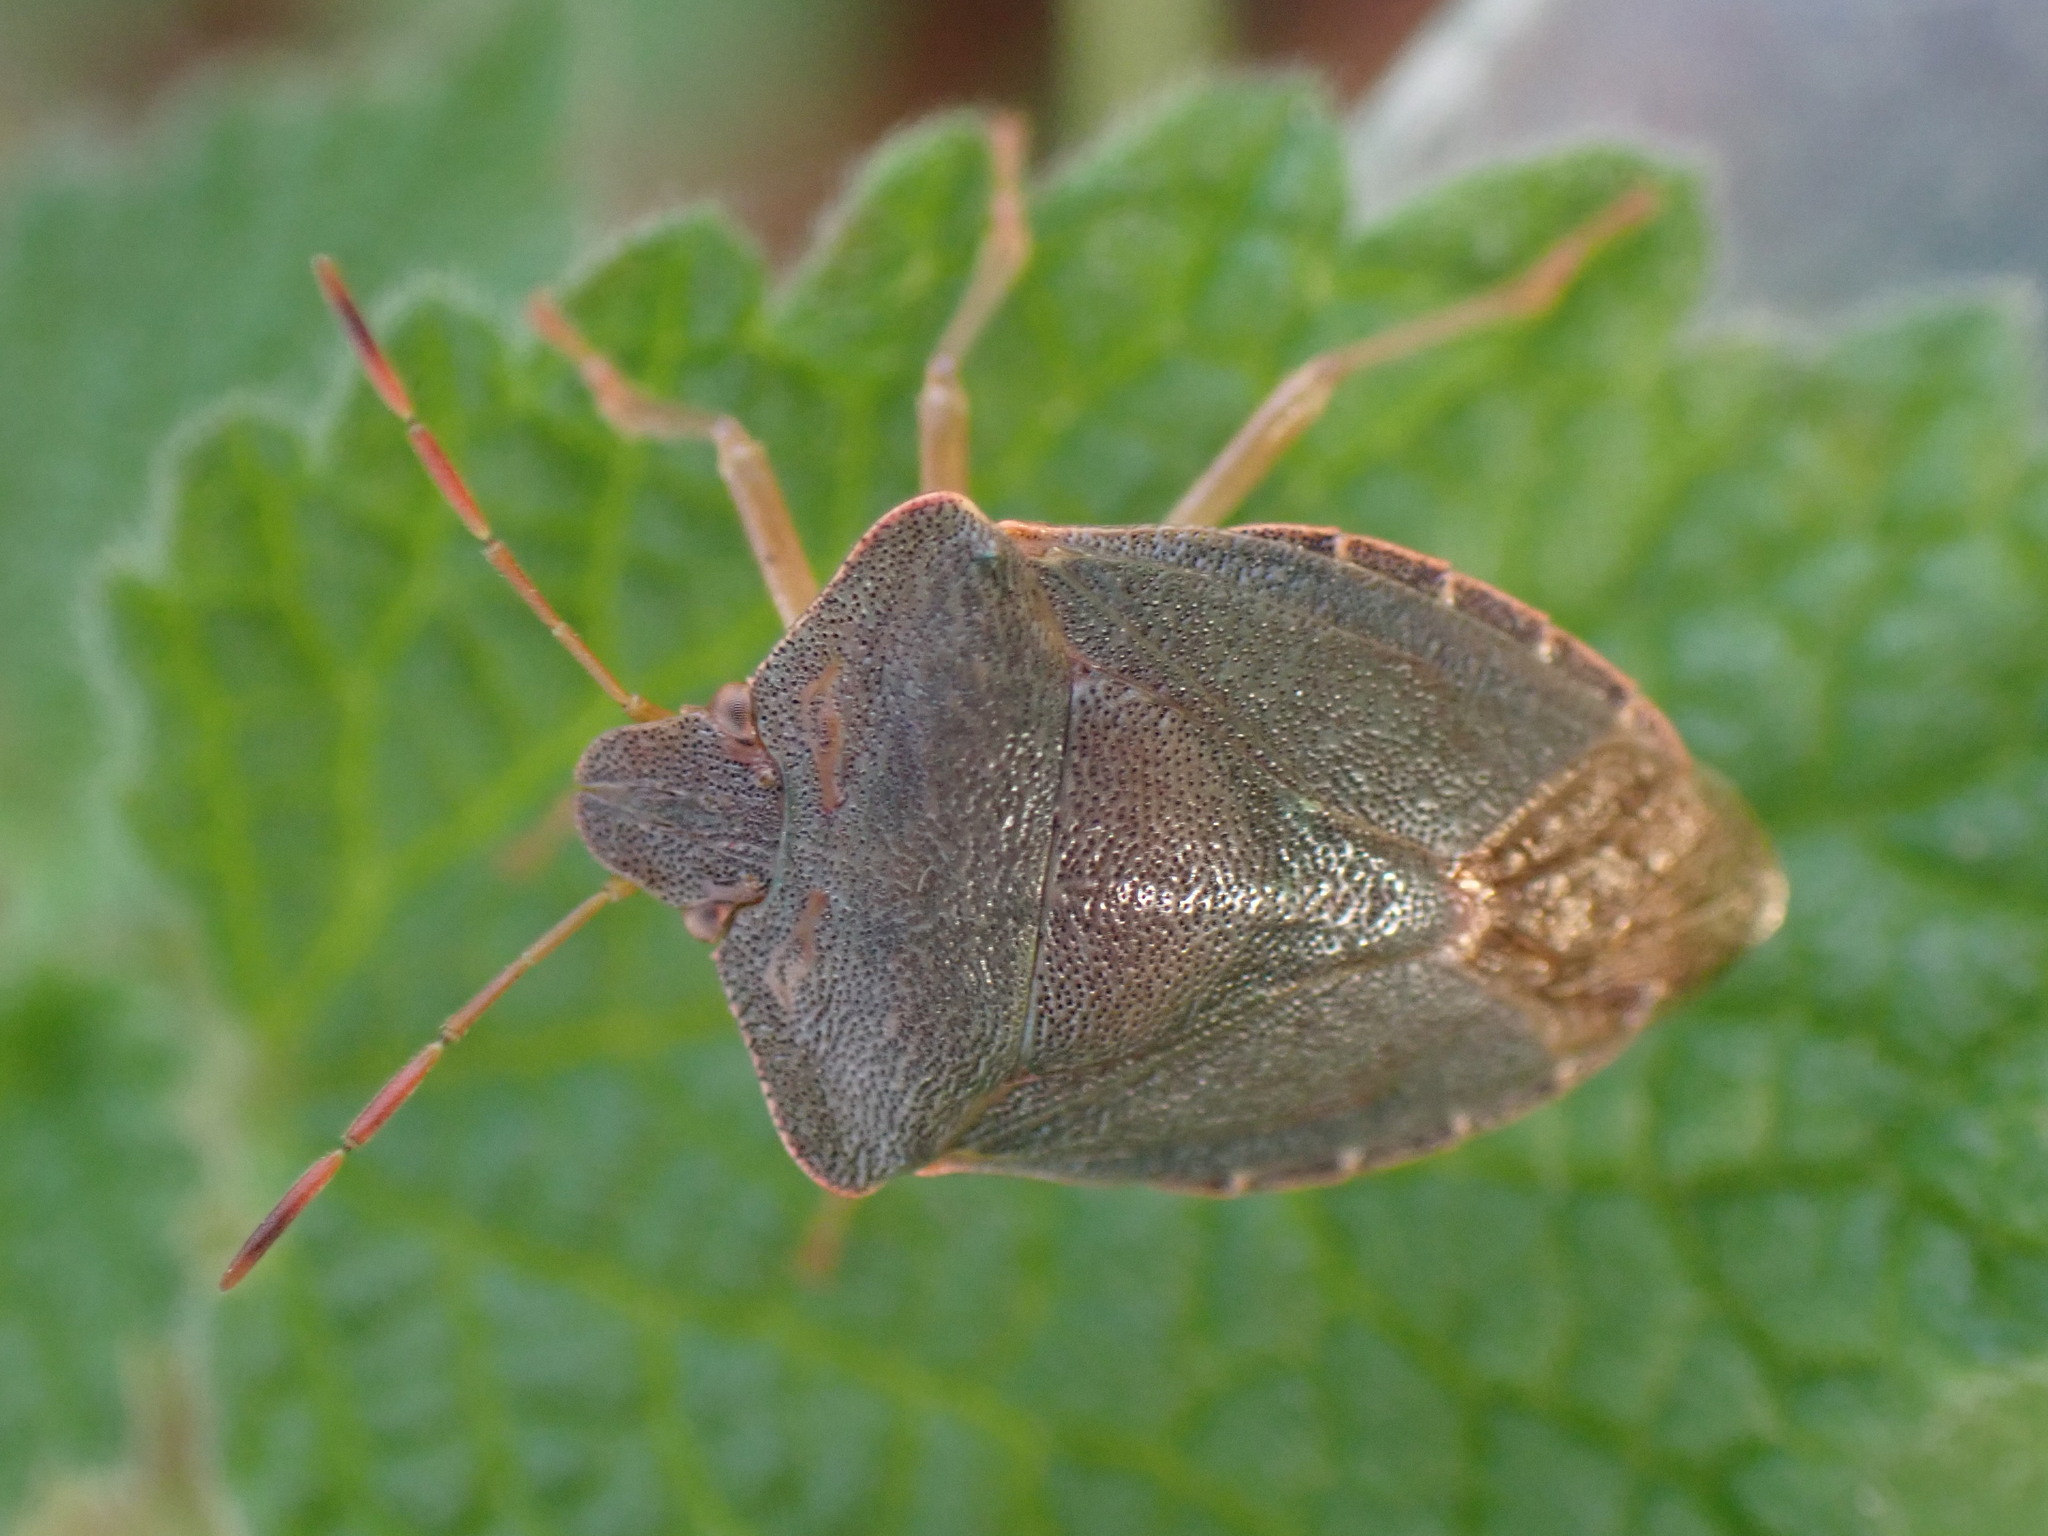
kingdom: Animalia
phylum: Arthropoda
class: Insecta
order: Hemiptera
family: Pentatomidae
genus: Palomena
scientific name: Palomena prasina
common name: Green shieldbug
